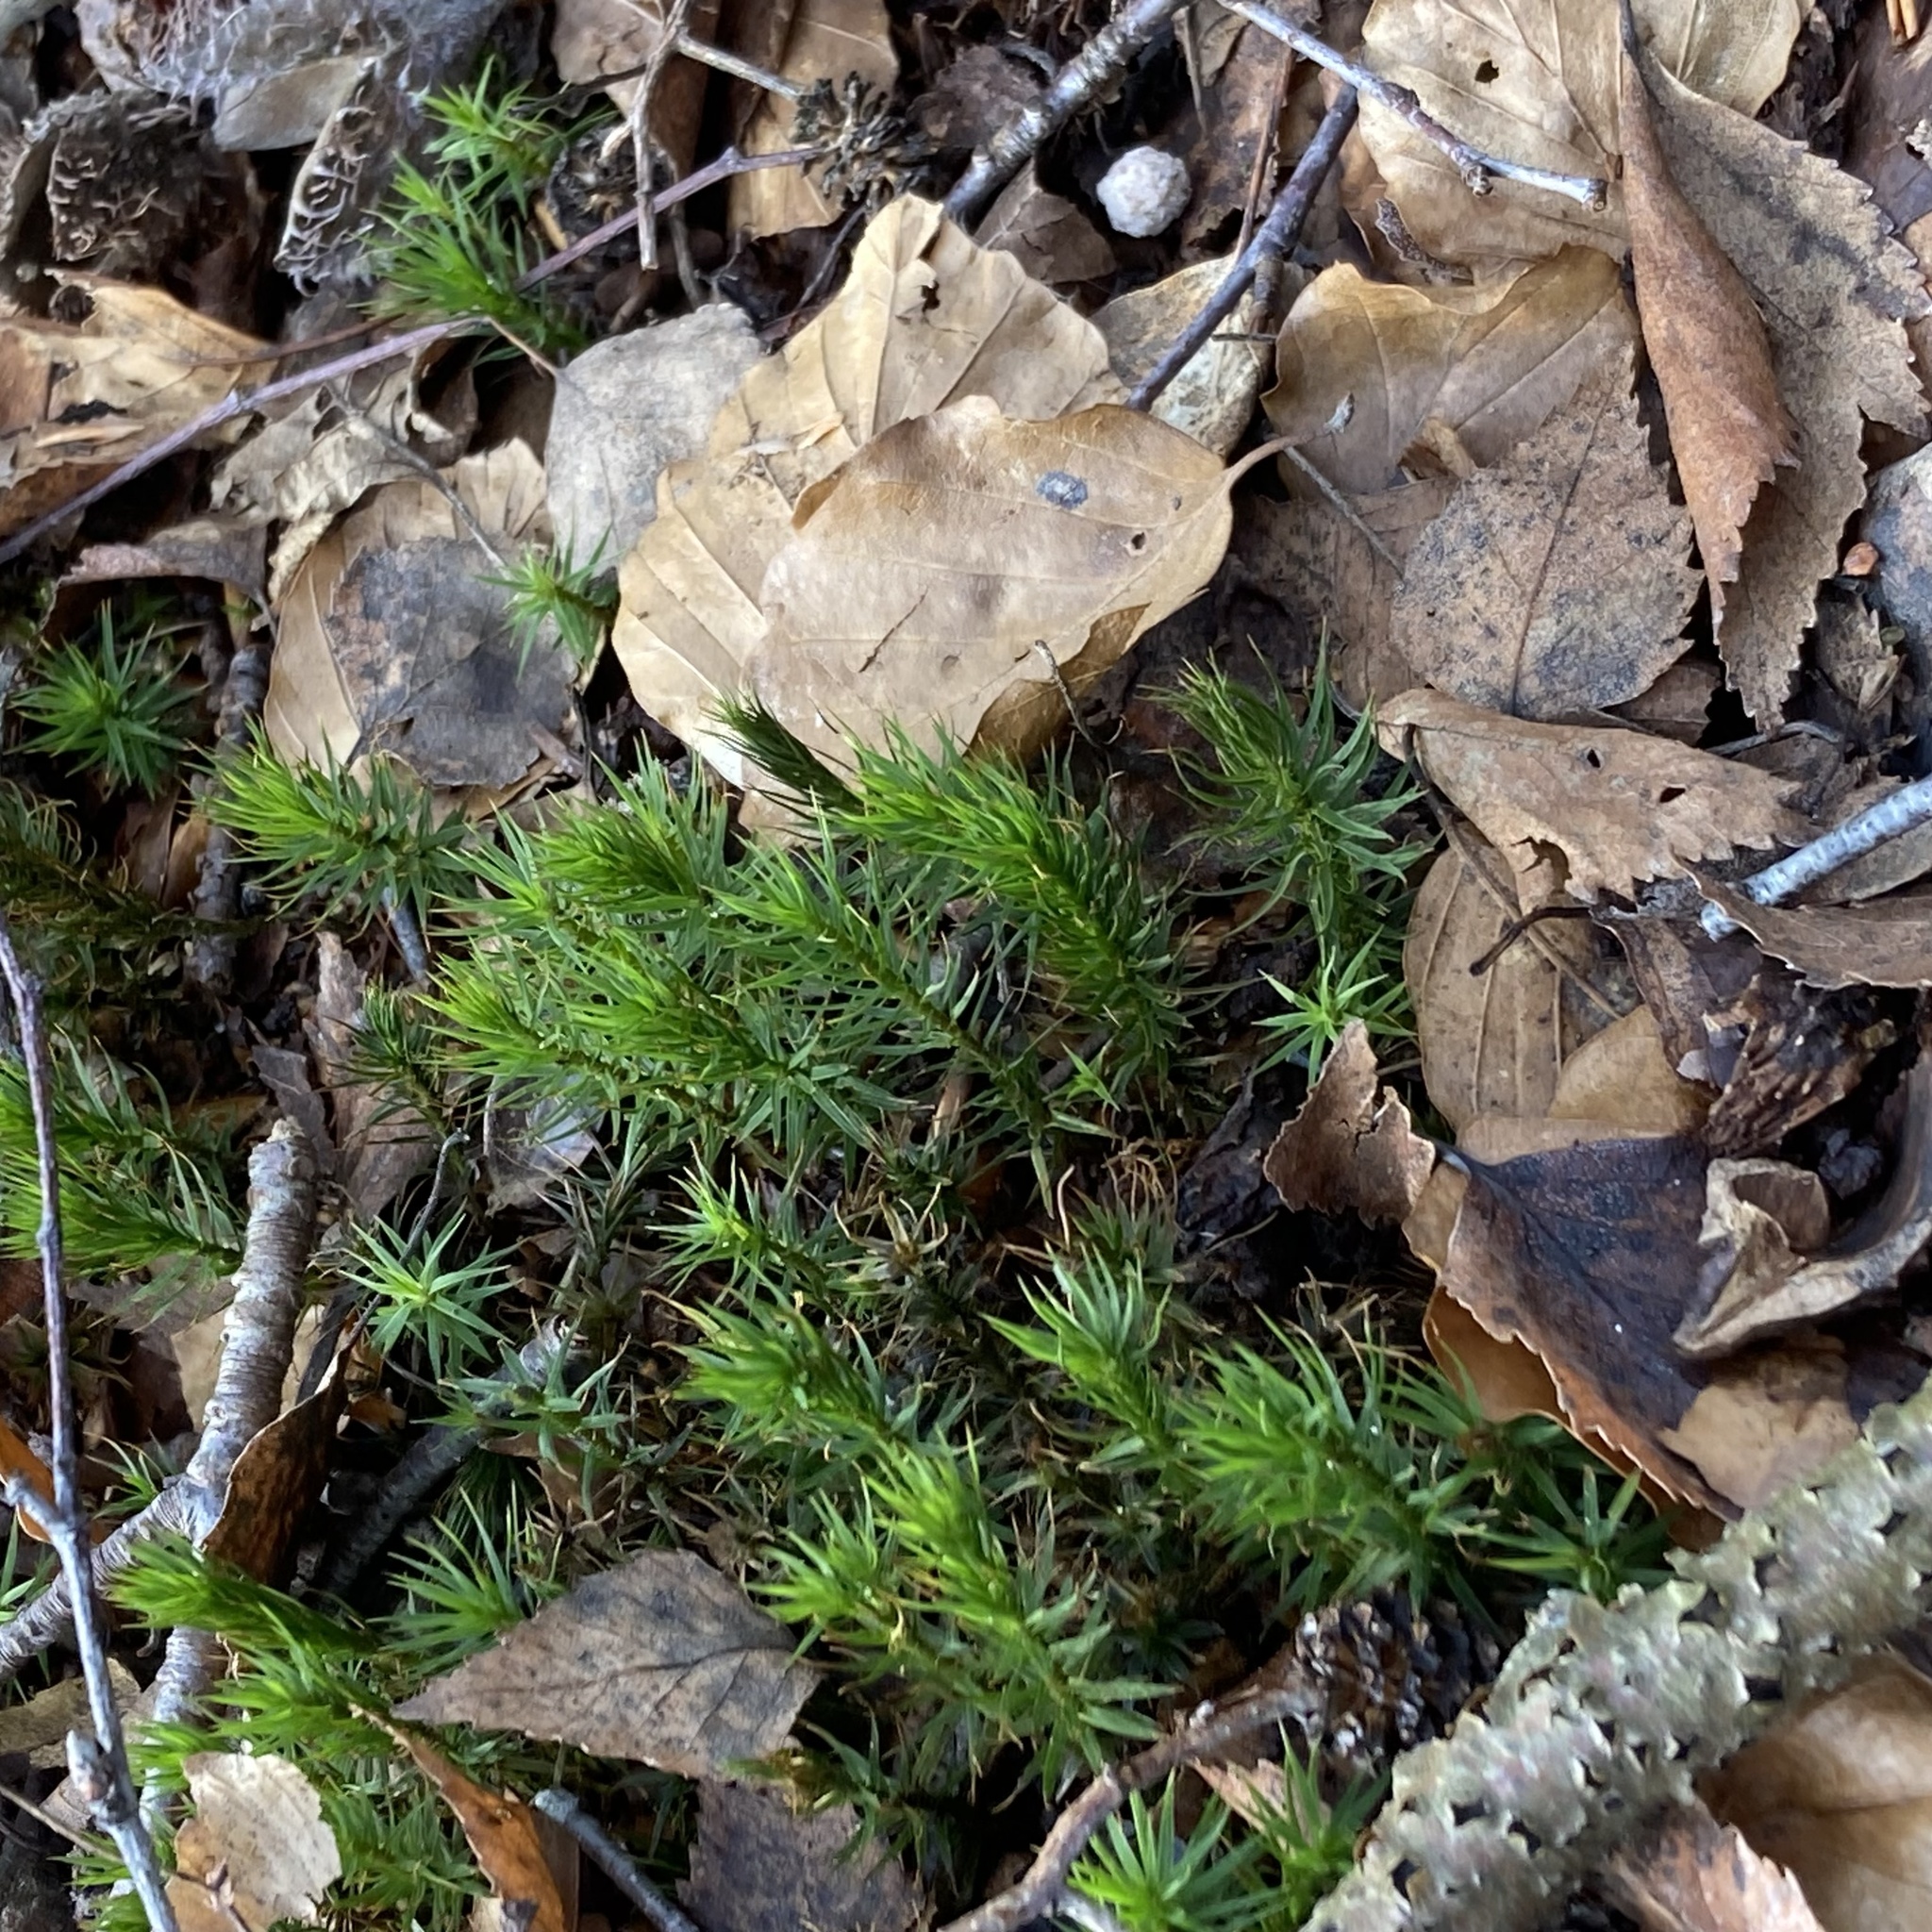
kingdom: Plantae
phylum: Bryophyta
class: Polytrichopsida
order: Polytrichales
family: Polytrichaceae
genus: Polytrichum
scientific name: Polytrichum formosum
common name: Bank haircap moss
